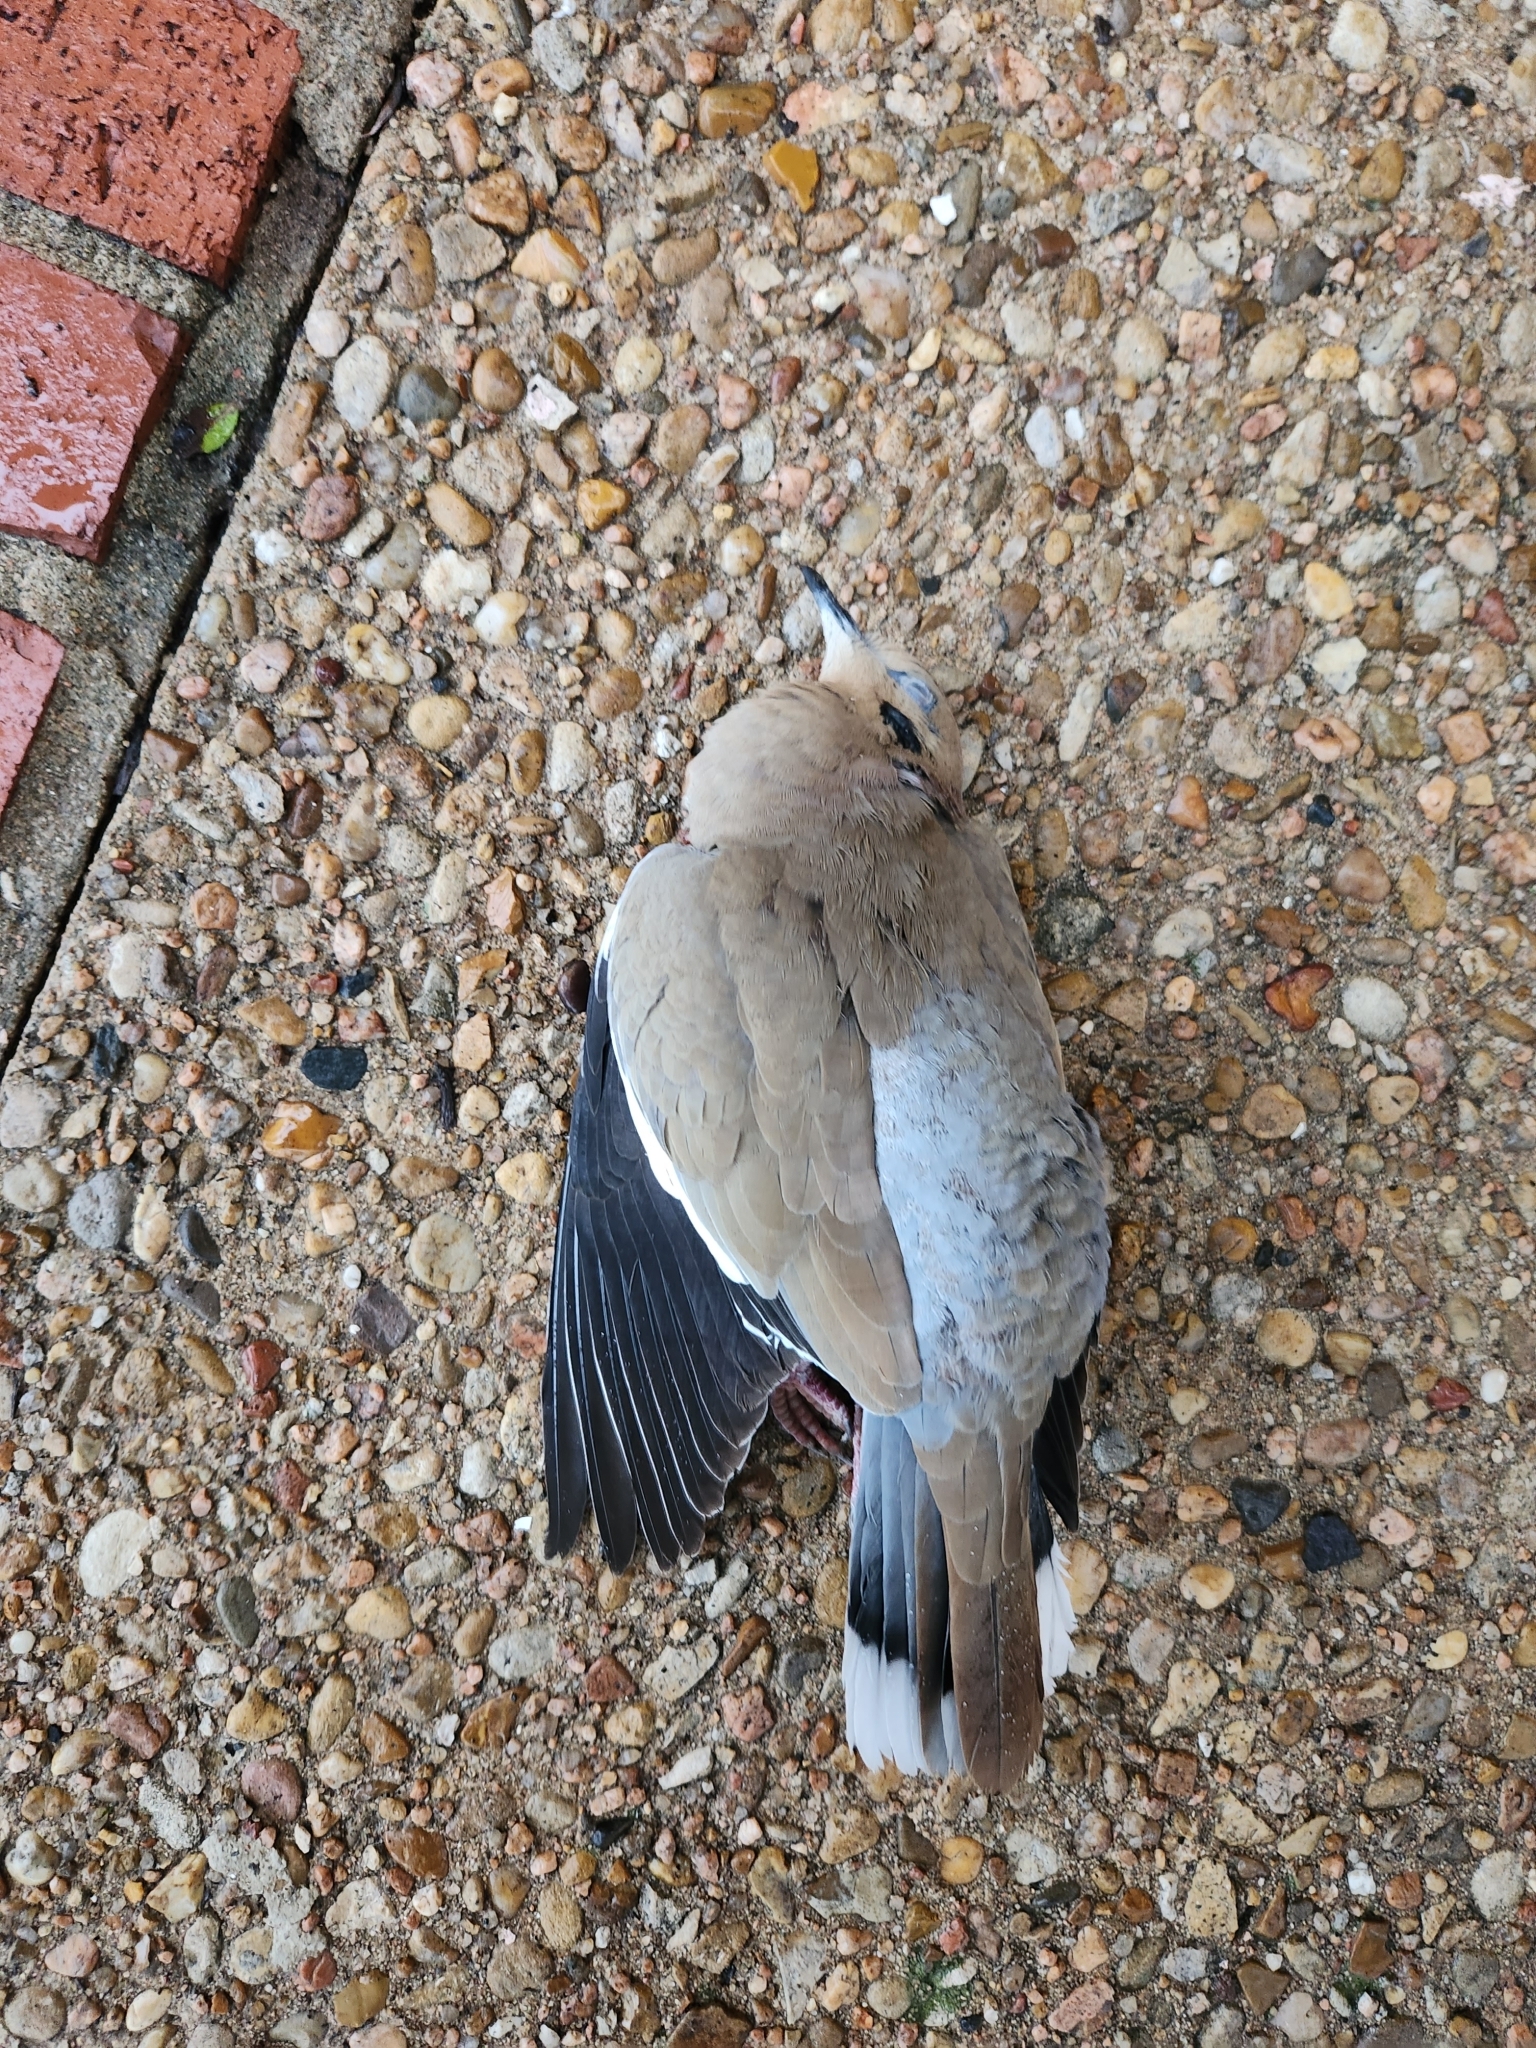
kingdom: Animalia
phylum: Chordata
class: Aves
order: Columbiformes
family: Columbidae
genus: Zenaida
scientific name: Zenaida asiatica
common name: White-winged dove
